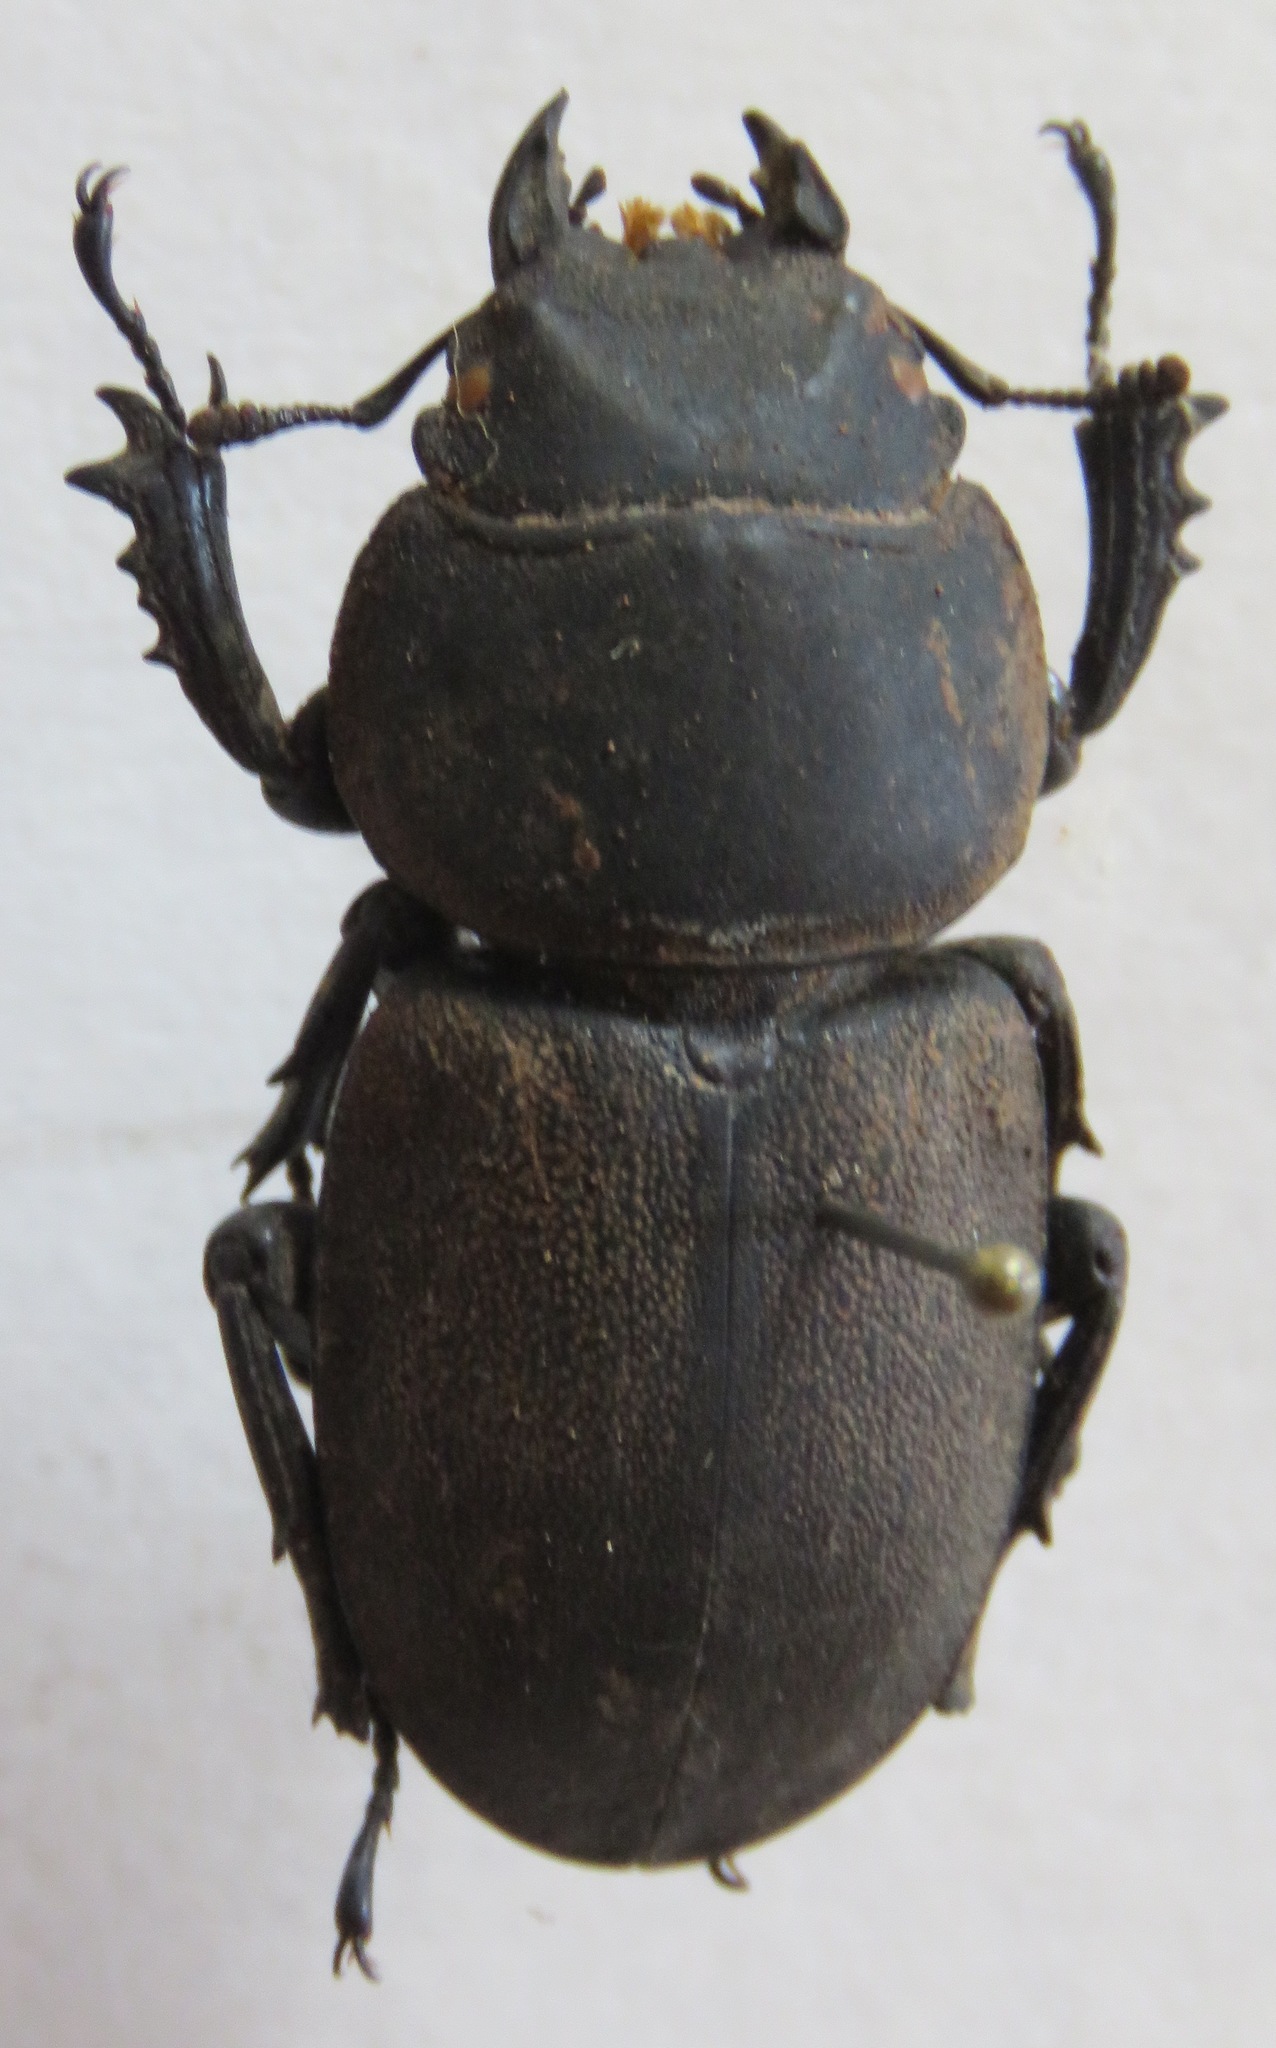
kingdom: Animalia
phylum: Arthropoda
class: Insecta
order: Coleoptera
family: Lucanidae
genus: Apterodorcus
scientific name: Apterodorcus bacchus
